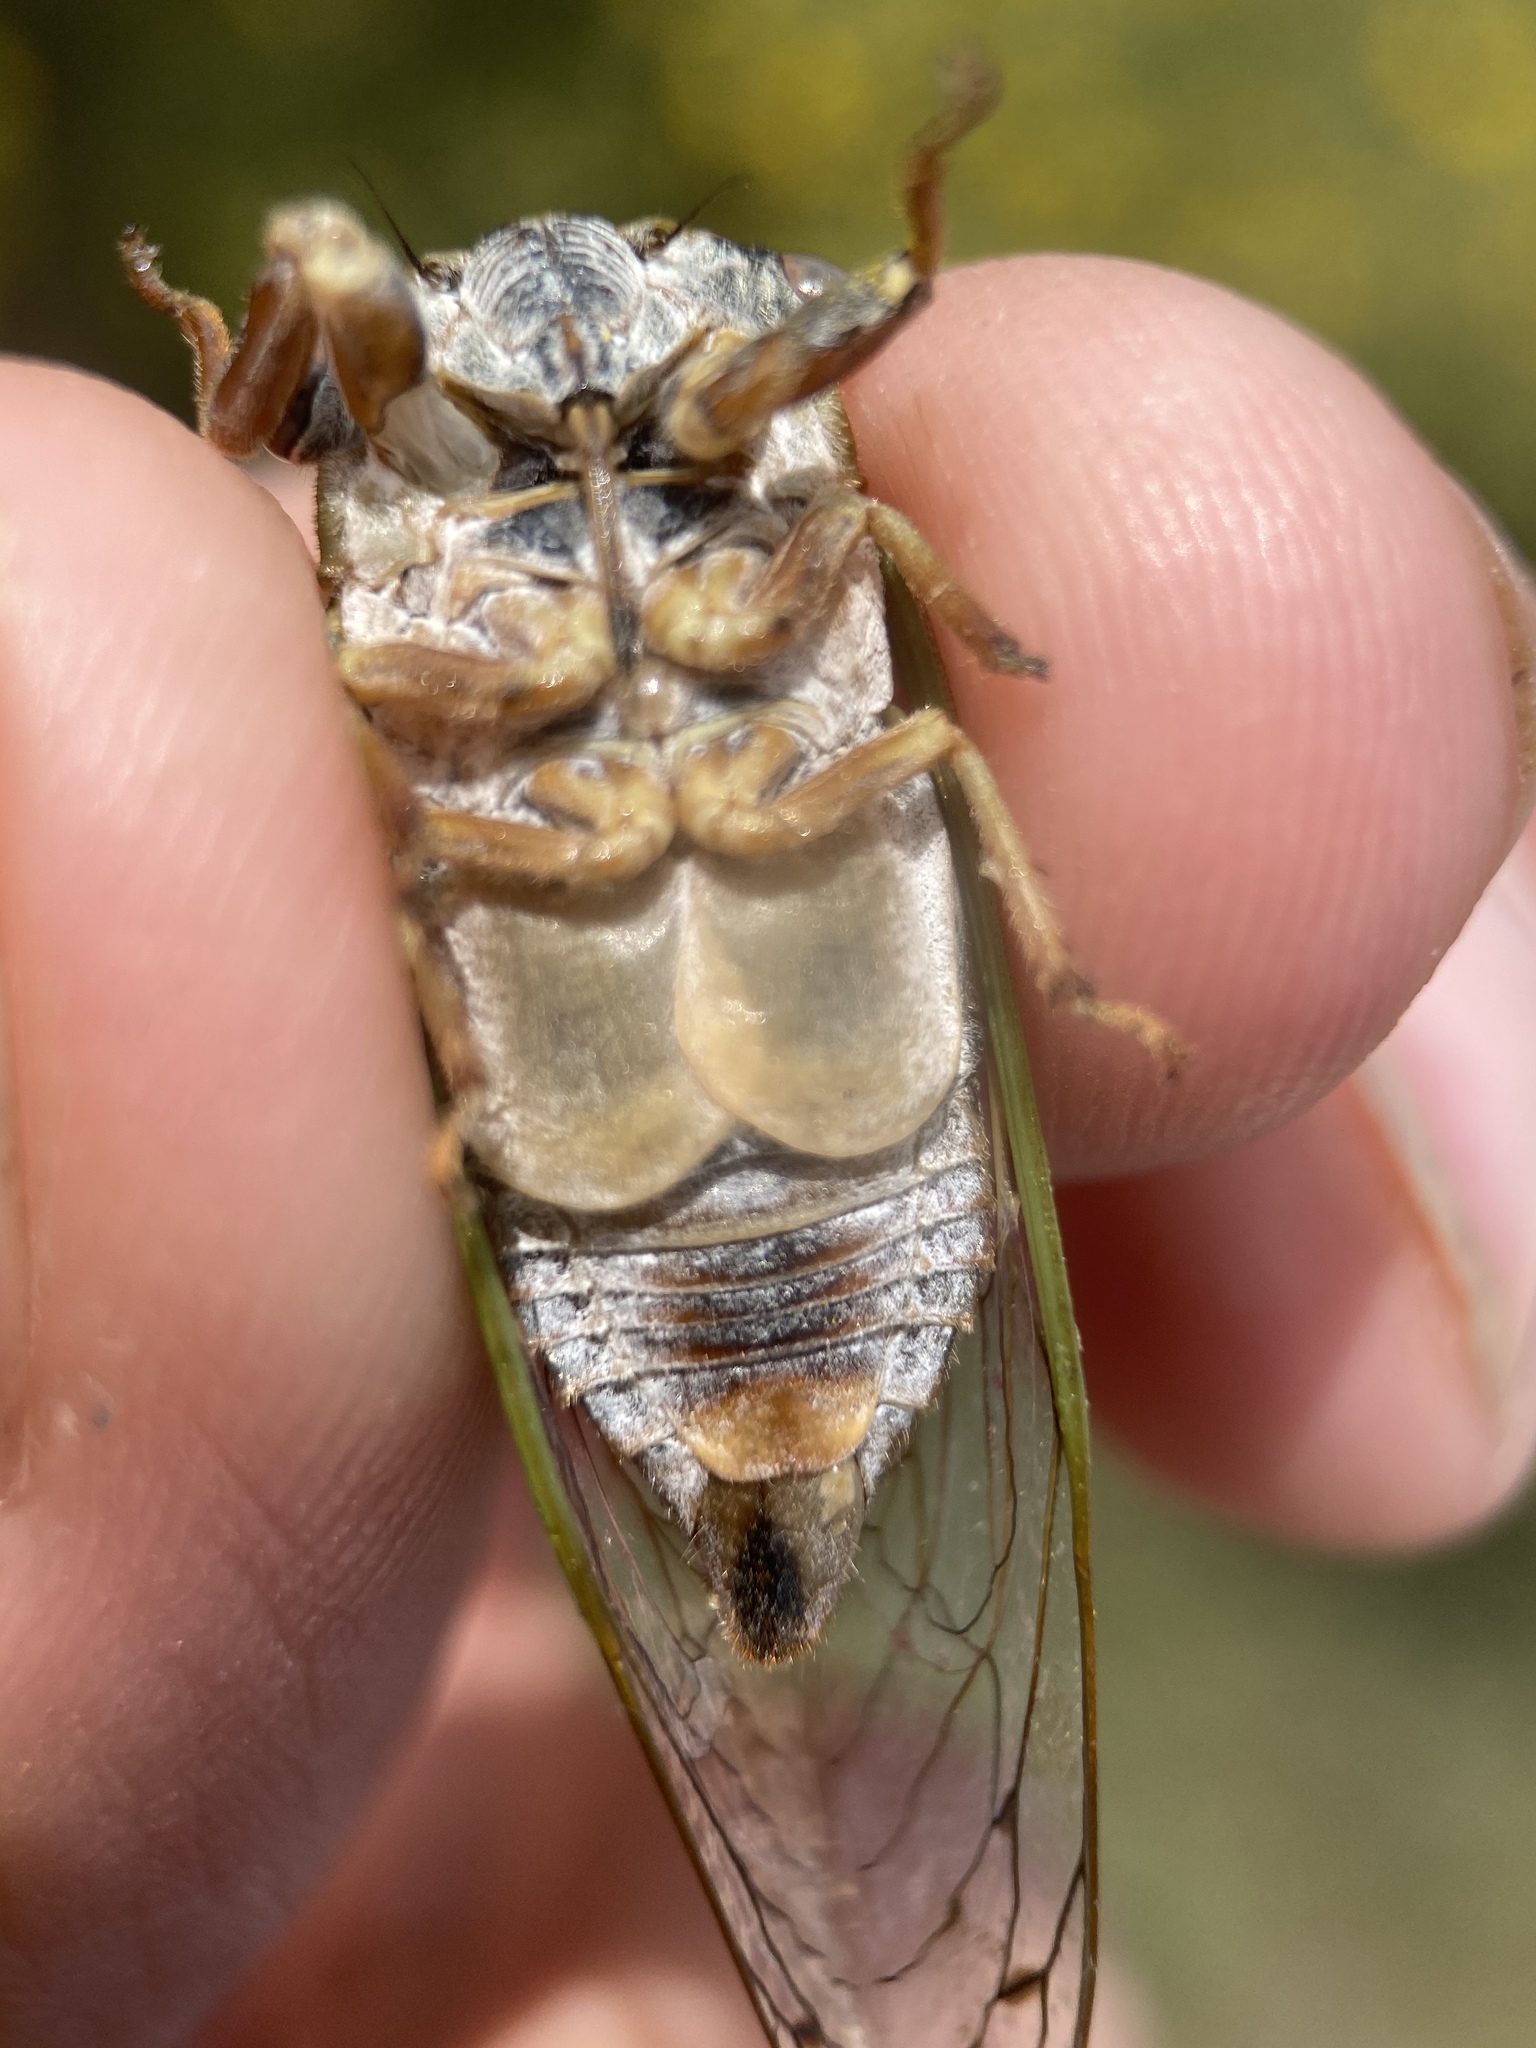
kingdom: Animalia
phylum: Arthropoda
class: Insecta
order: Hemiptera
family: Cicadidae
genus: Neotibicen
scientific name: Neotibicen aurifer
